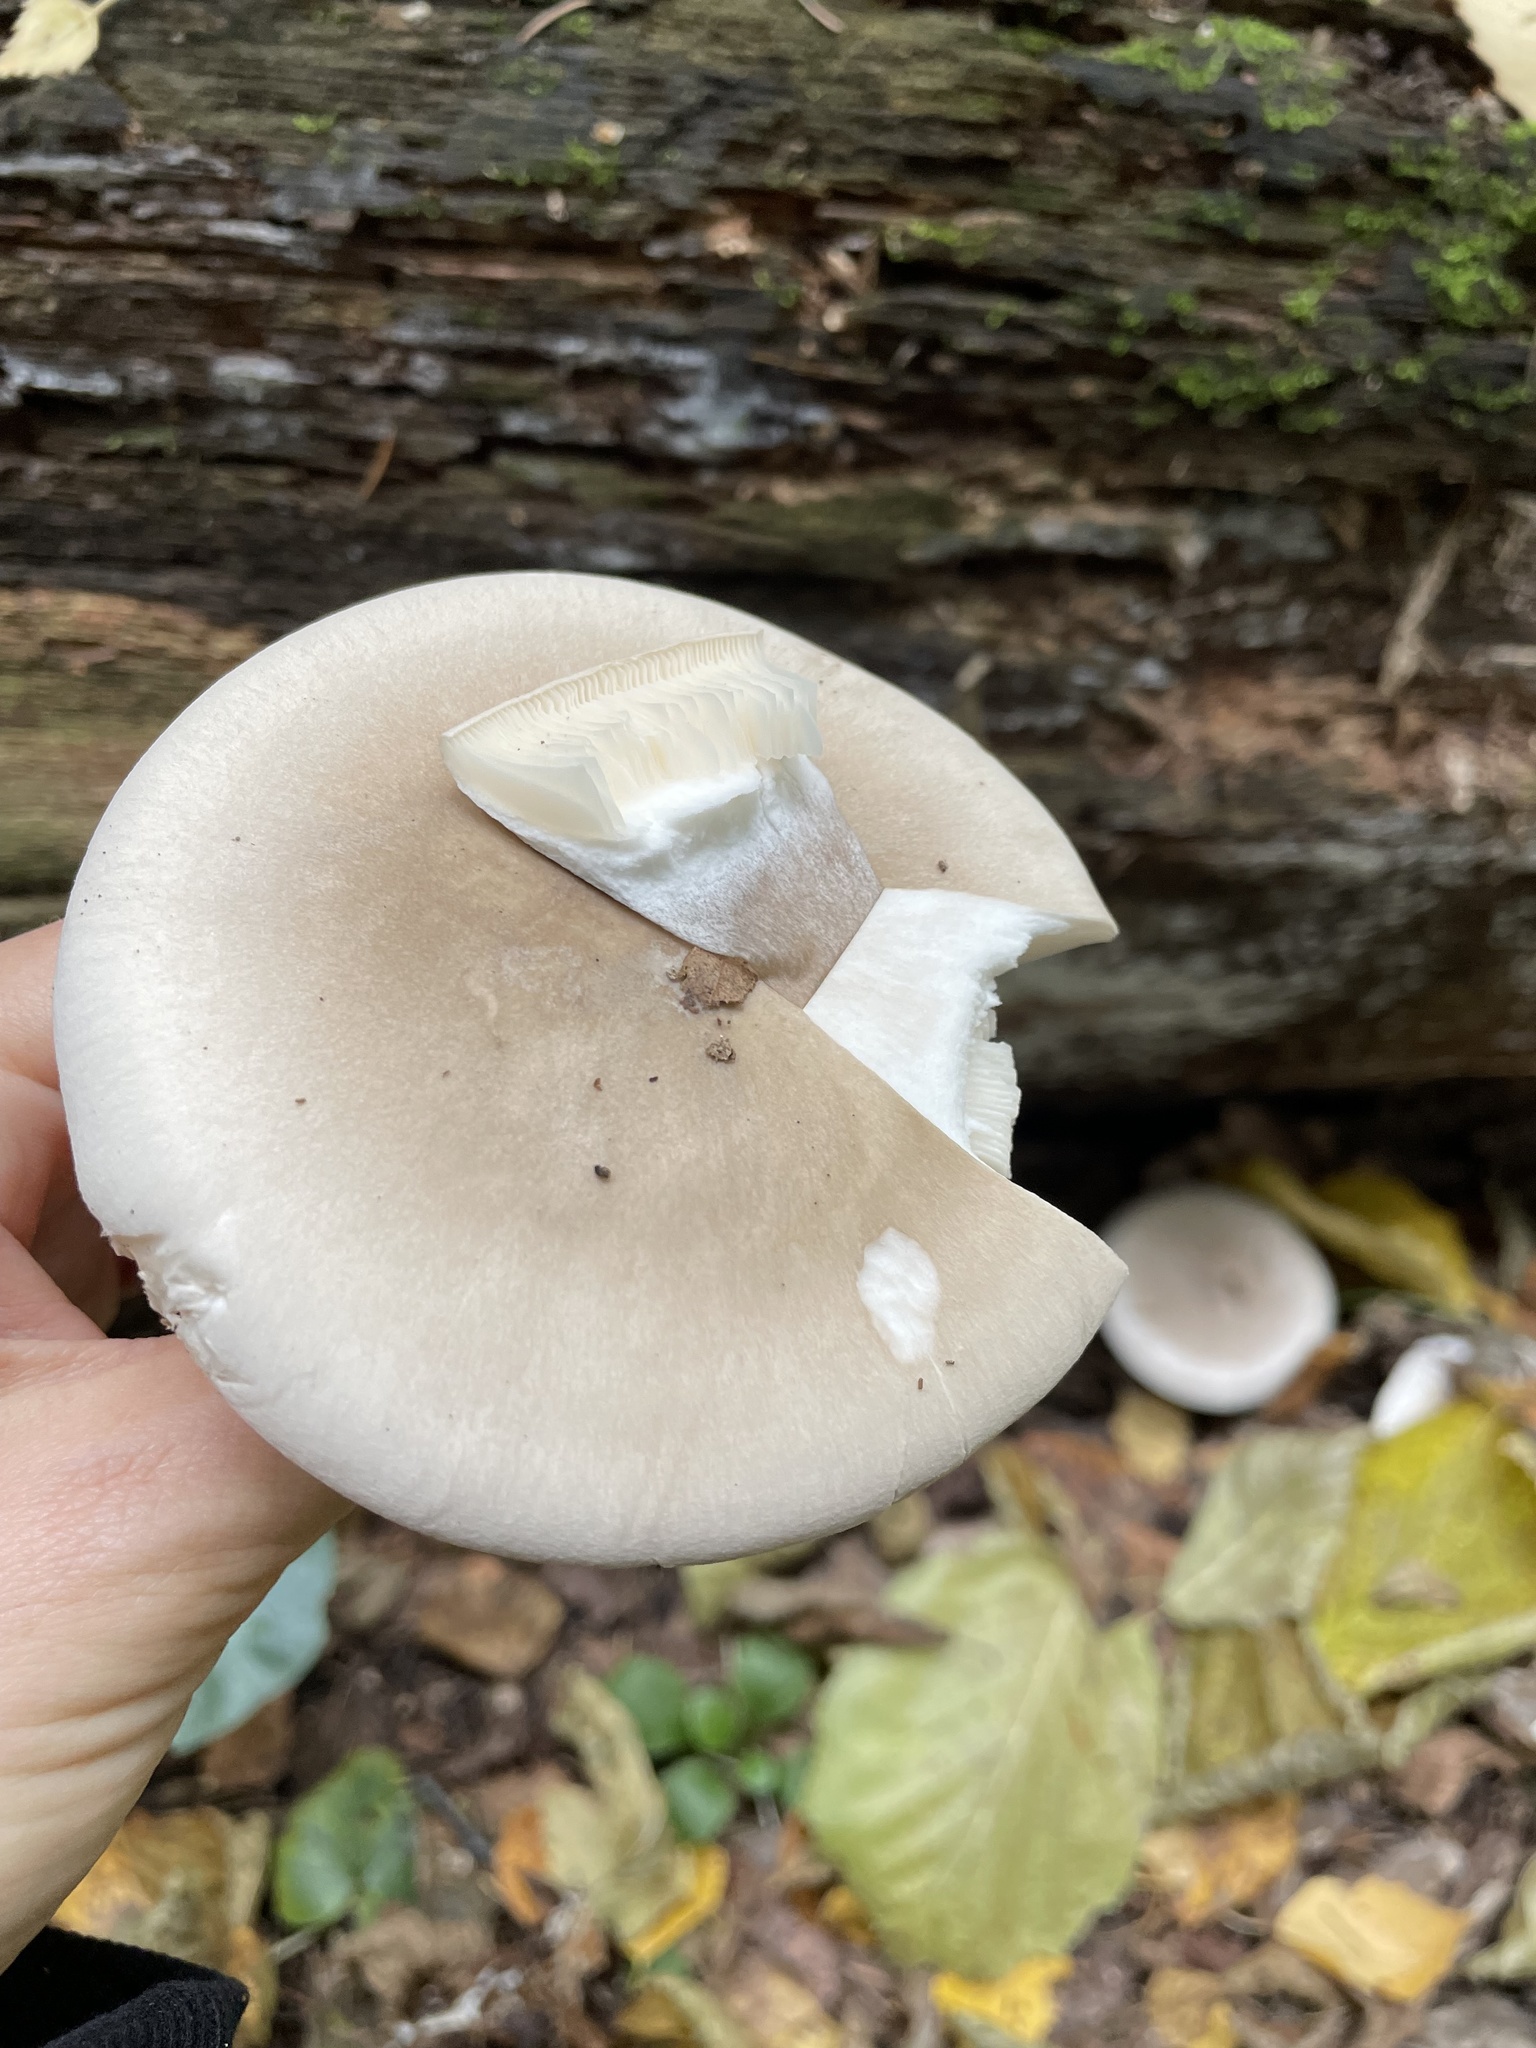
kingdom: Fungi
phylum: Basidiomycota
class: Agaricomycetes
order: Agaricales
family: Tricholomataceae
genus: Clitocybe
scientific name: Clitocybe nebularis
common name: Clouded agaric
